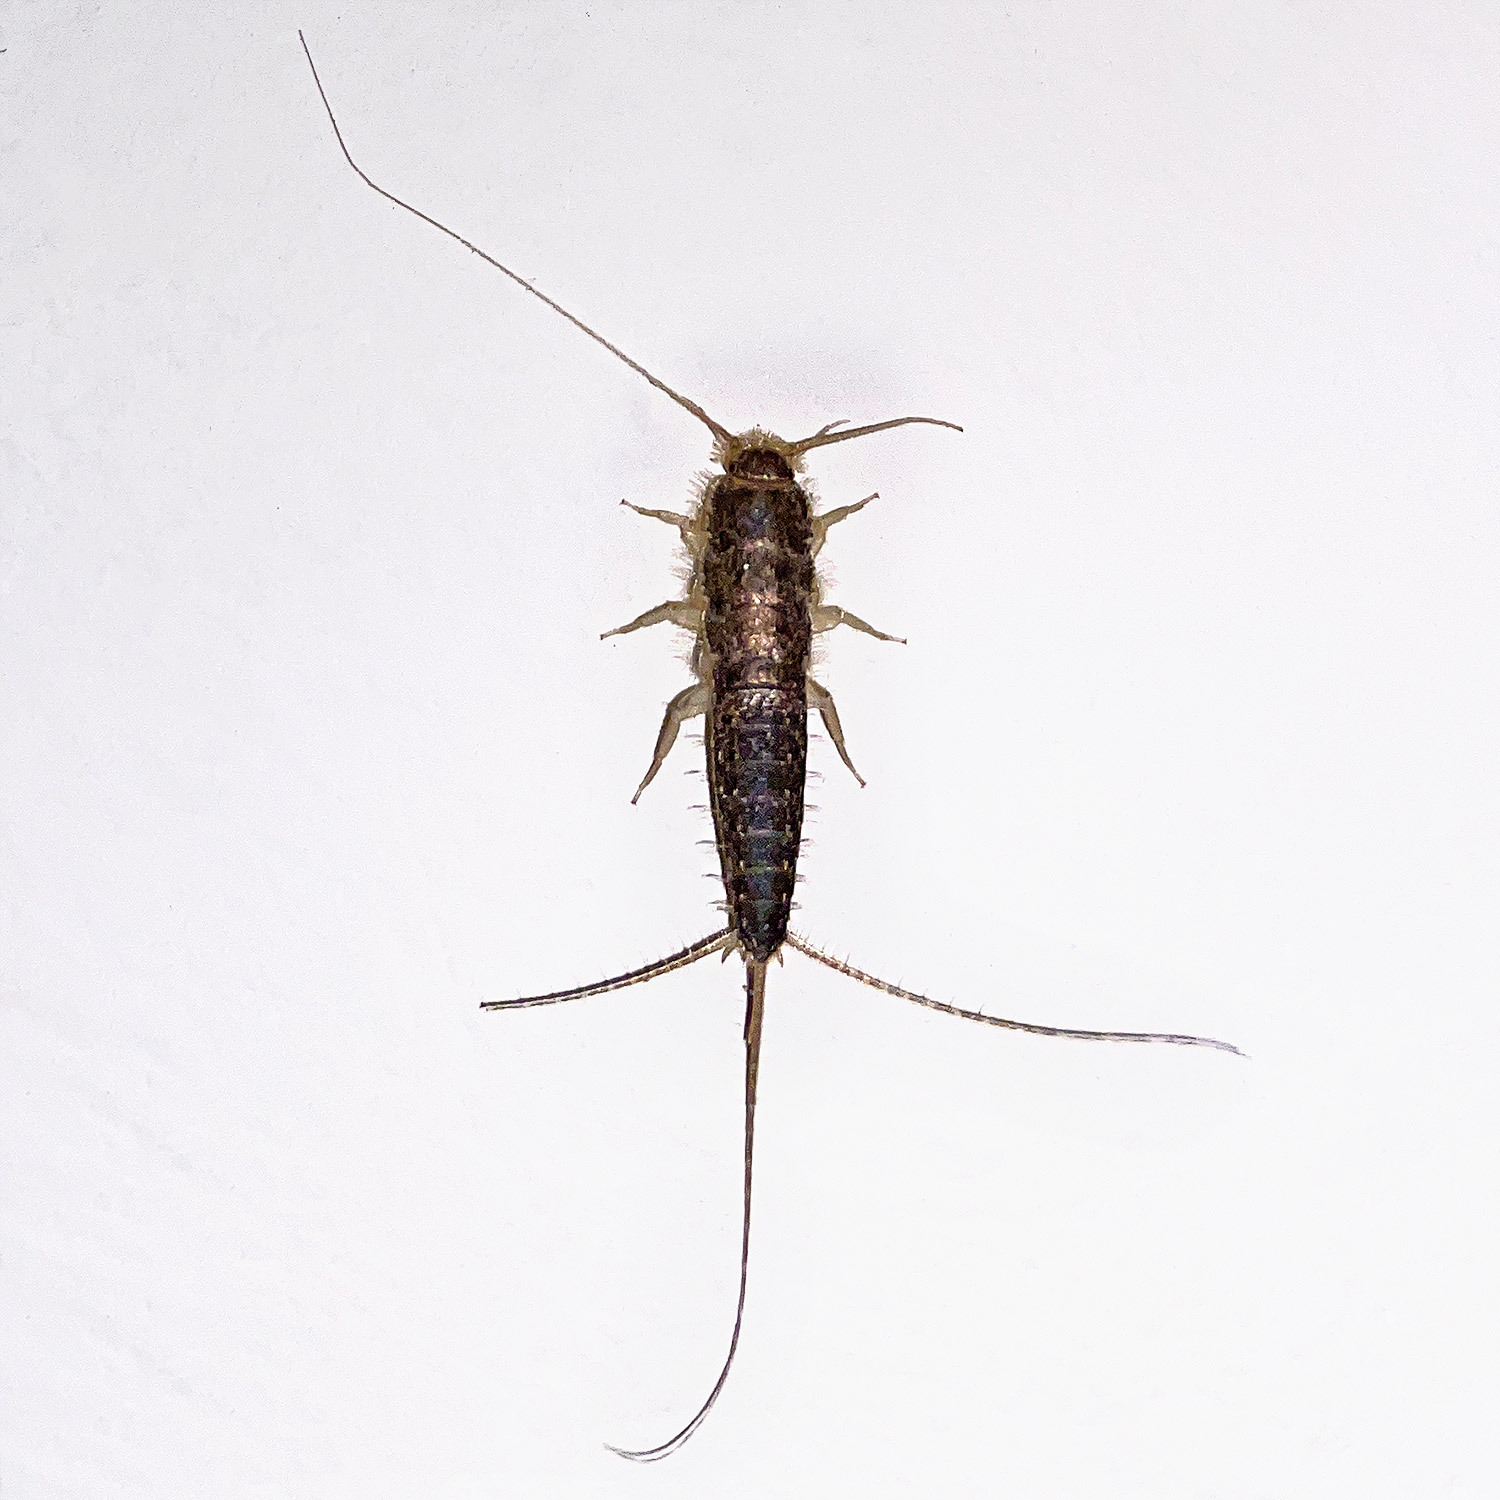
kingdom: Animalia
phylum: Arthropoda
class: Insecta
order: Zygentoma
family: Lepismatidae
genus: Ctenolepisma
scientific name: Ctenolepisma longicaudatum
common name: Silverfish
